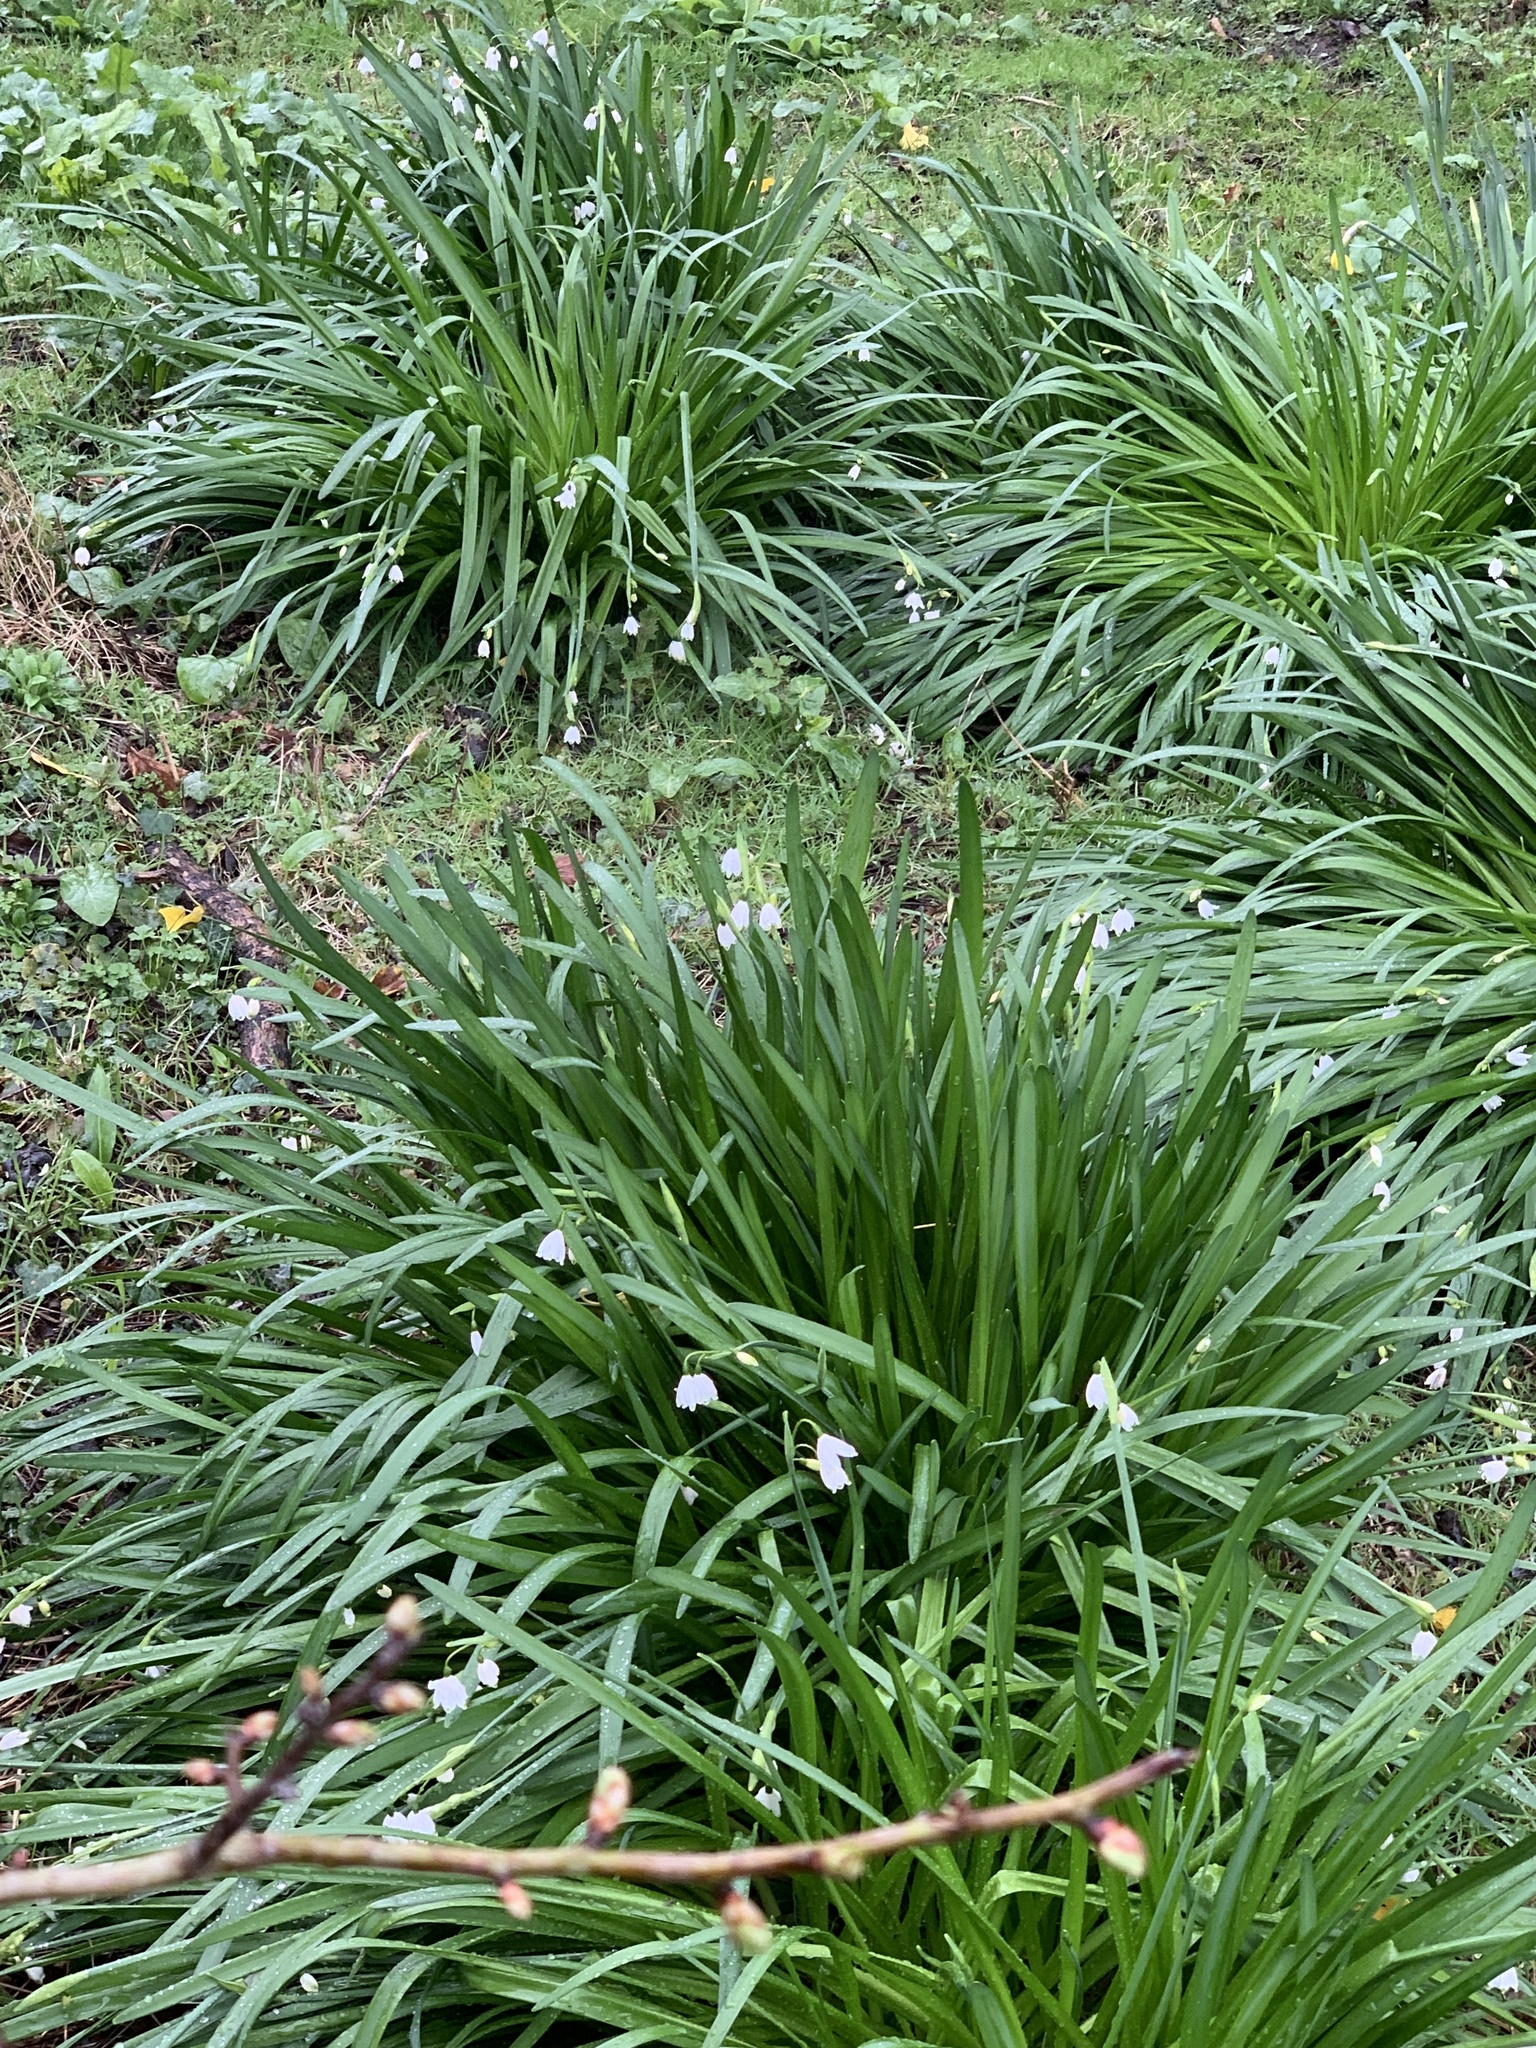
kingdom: Plantae
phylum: Tracheophyta
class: Liliopsida
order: Asparagales
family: Amaryllidaceae
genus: Leucojum
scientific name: Leucojum aestivum
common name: Summer snowflake
